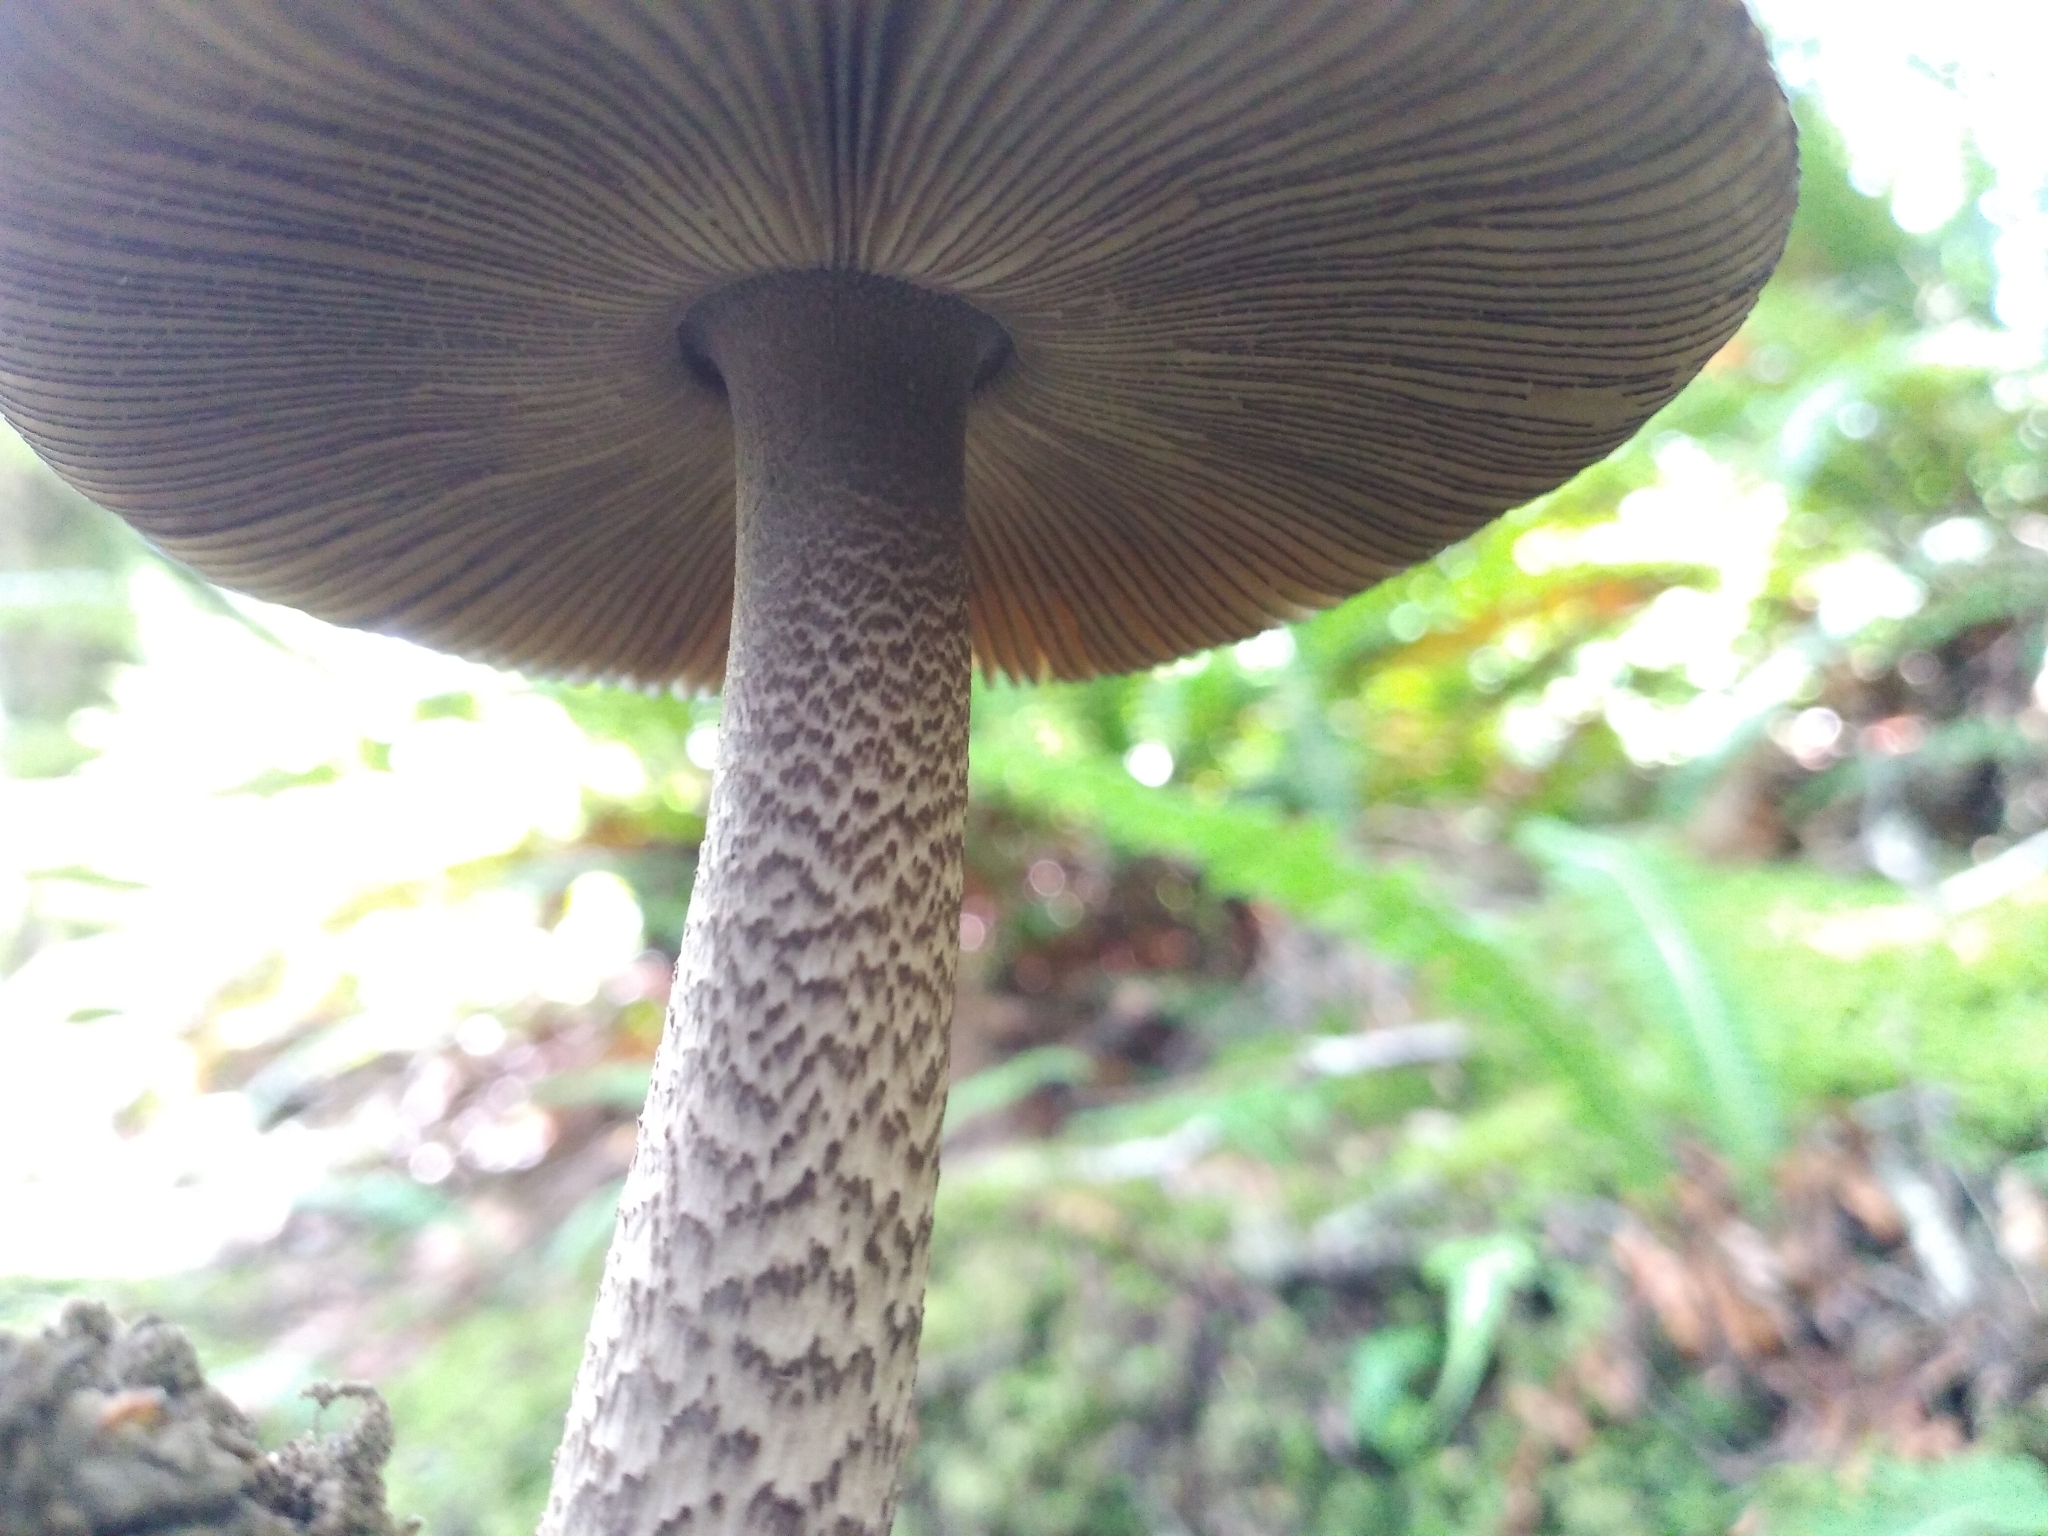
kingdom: Fungi
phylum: Basidiomycota
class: Agaricomycetes
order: Agaricales
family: Amanitaceae
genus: Amanita
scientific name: Amanita pekeoides
